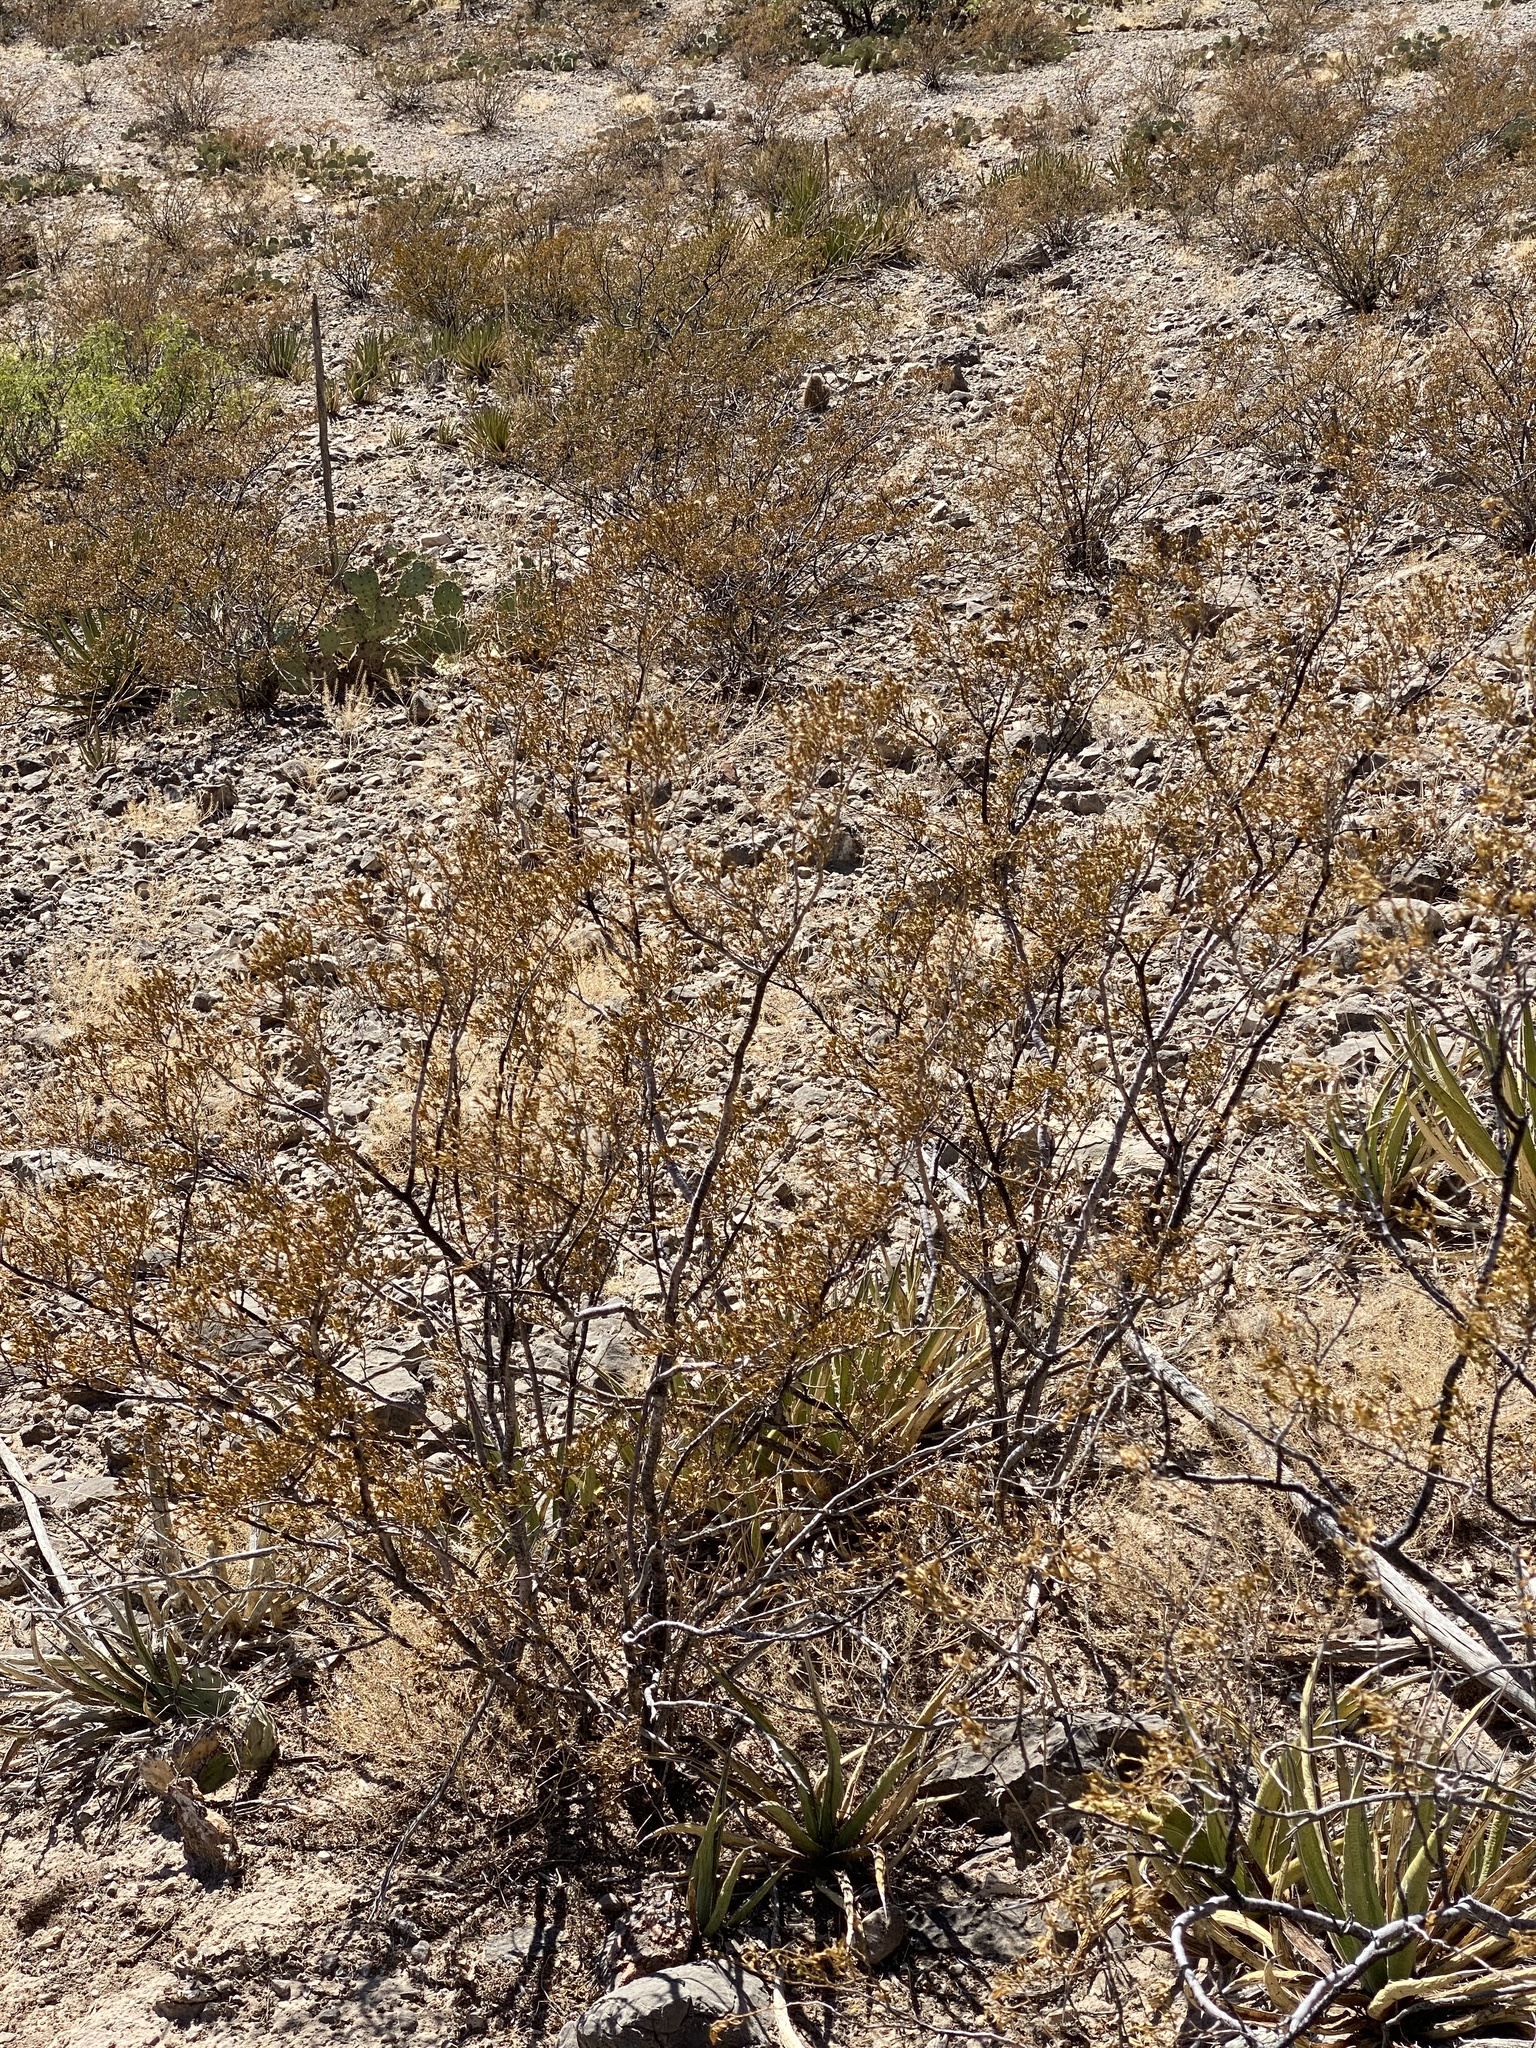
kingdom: Plantae
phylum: Tracheophyta
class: Magnoliopsida
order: Zygophyllales
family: Zygophyllaceae
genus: Larrea
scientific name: Larrea tridentata
